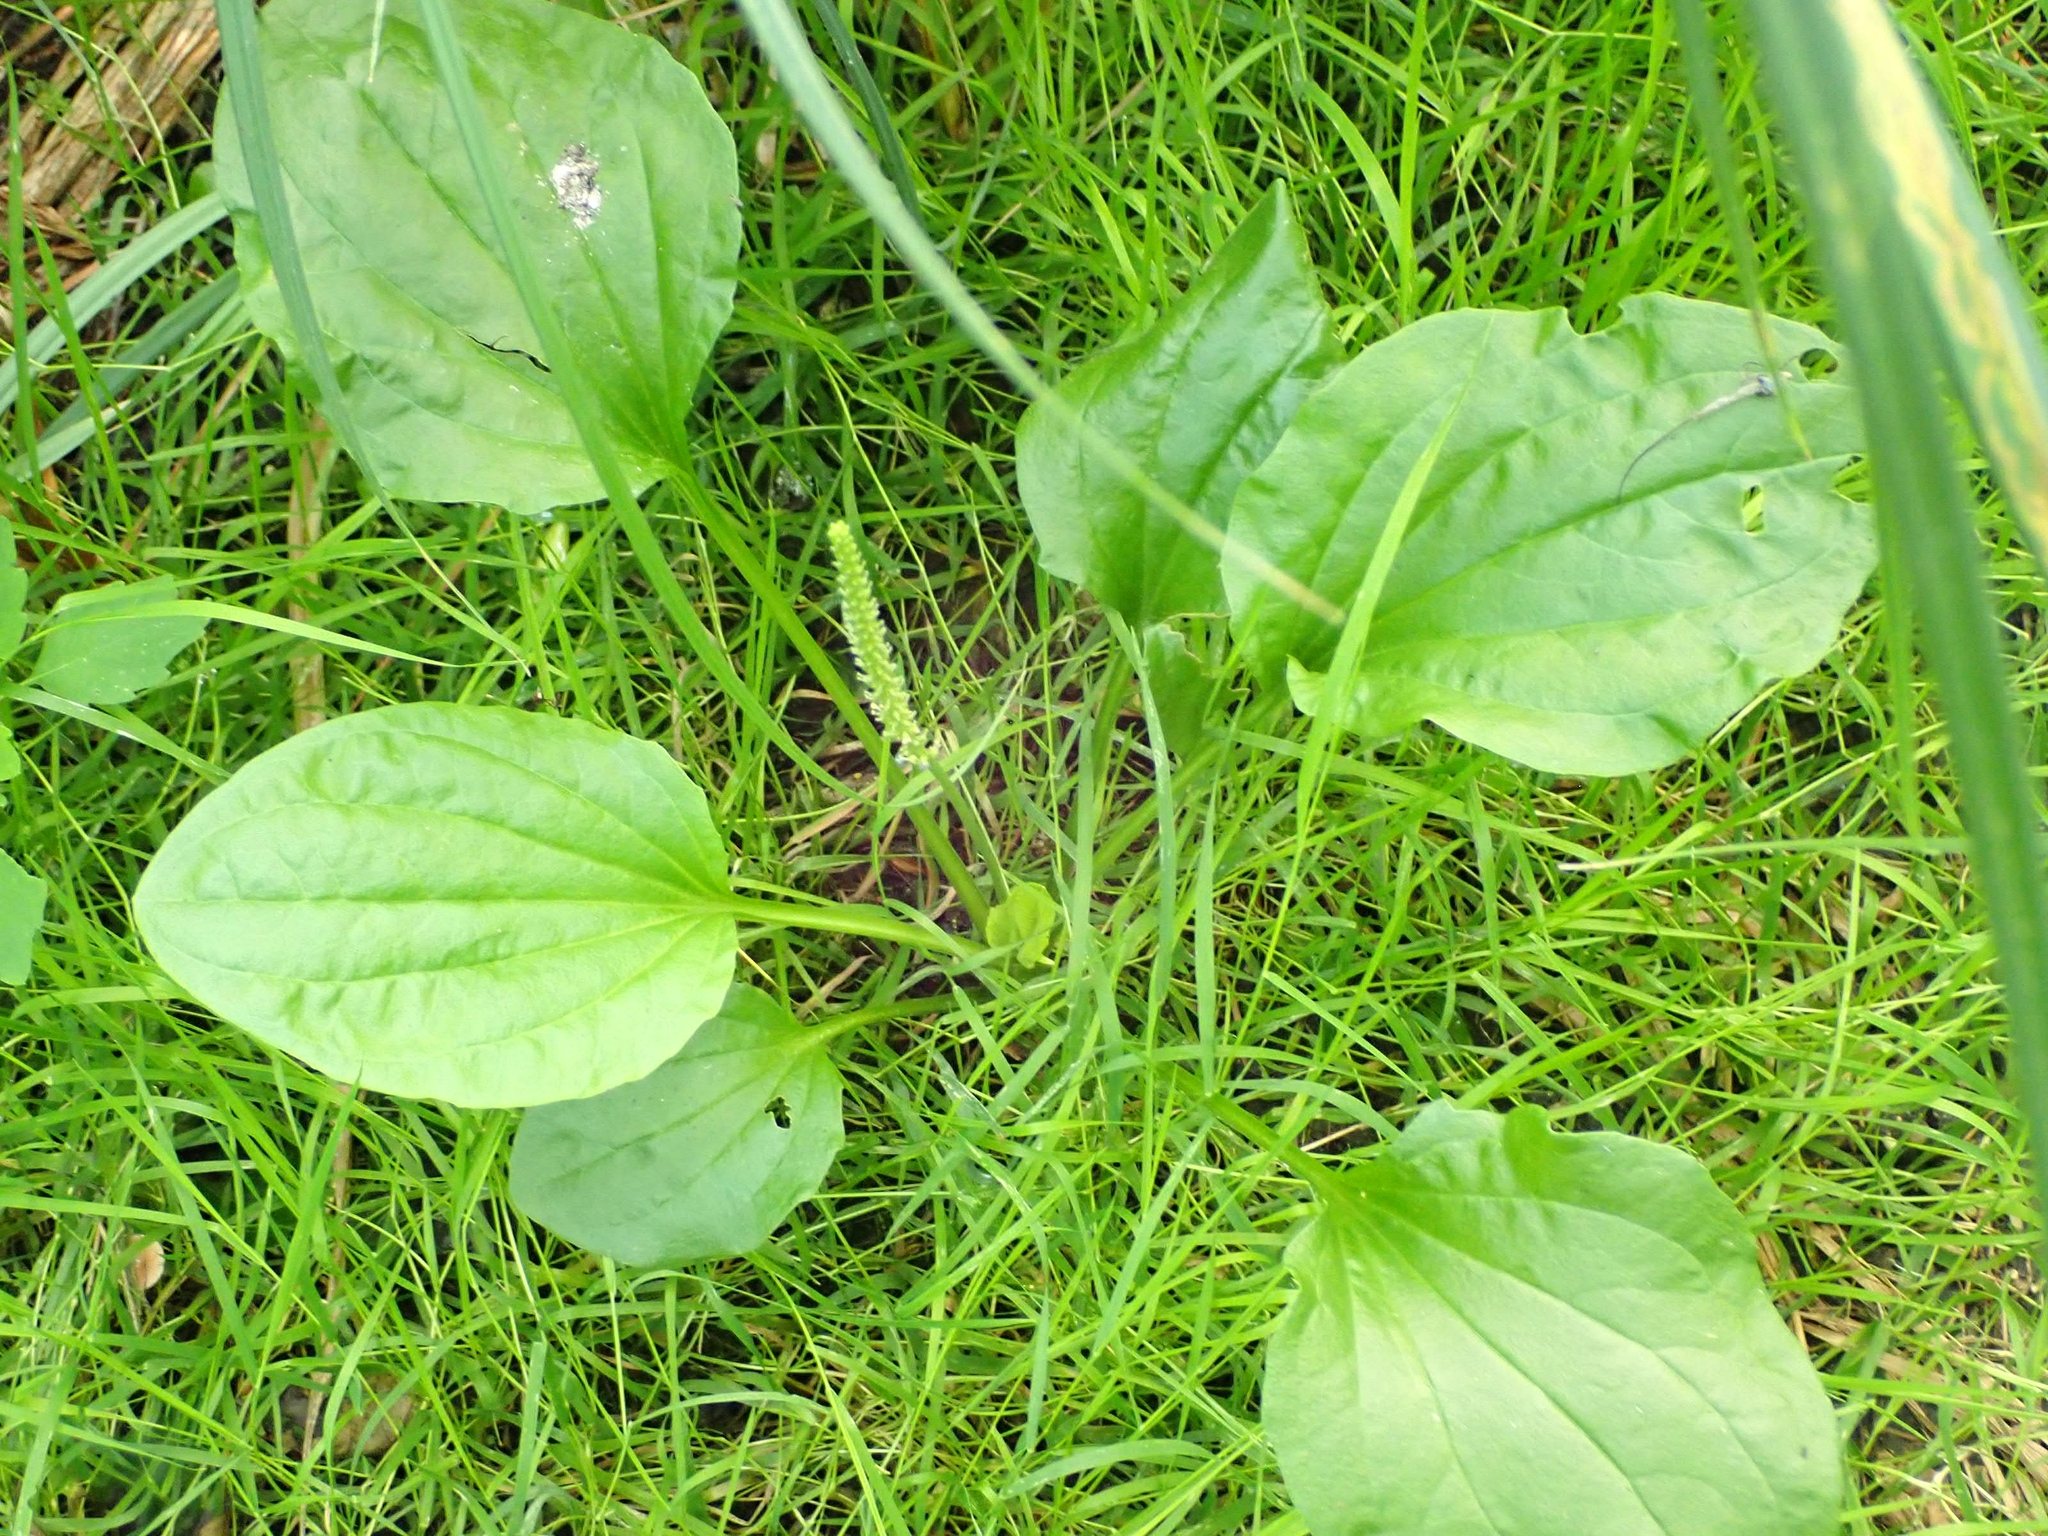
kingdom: Plantae
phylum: Tracheophyta
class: Magnoliopsida
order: Lamiales
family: Plantaginaceae
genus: Plantago
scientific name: Plantago major
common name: Common plantain
